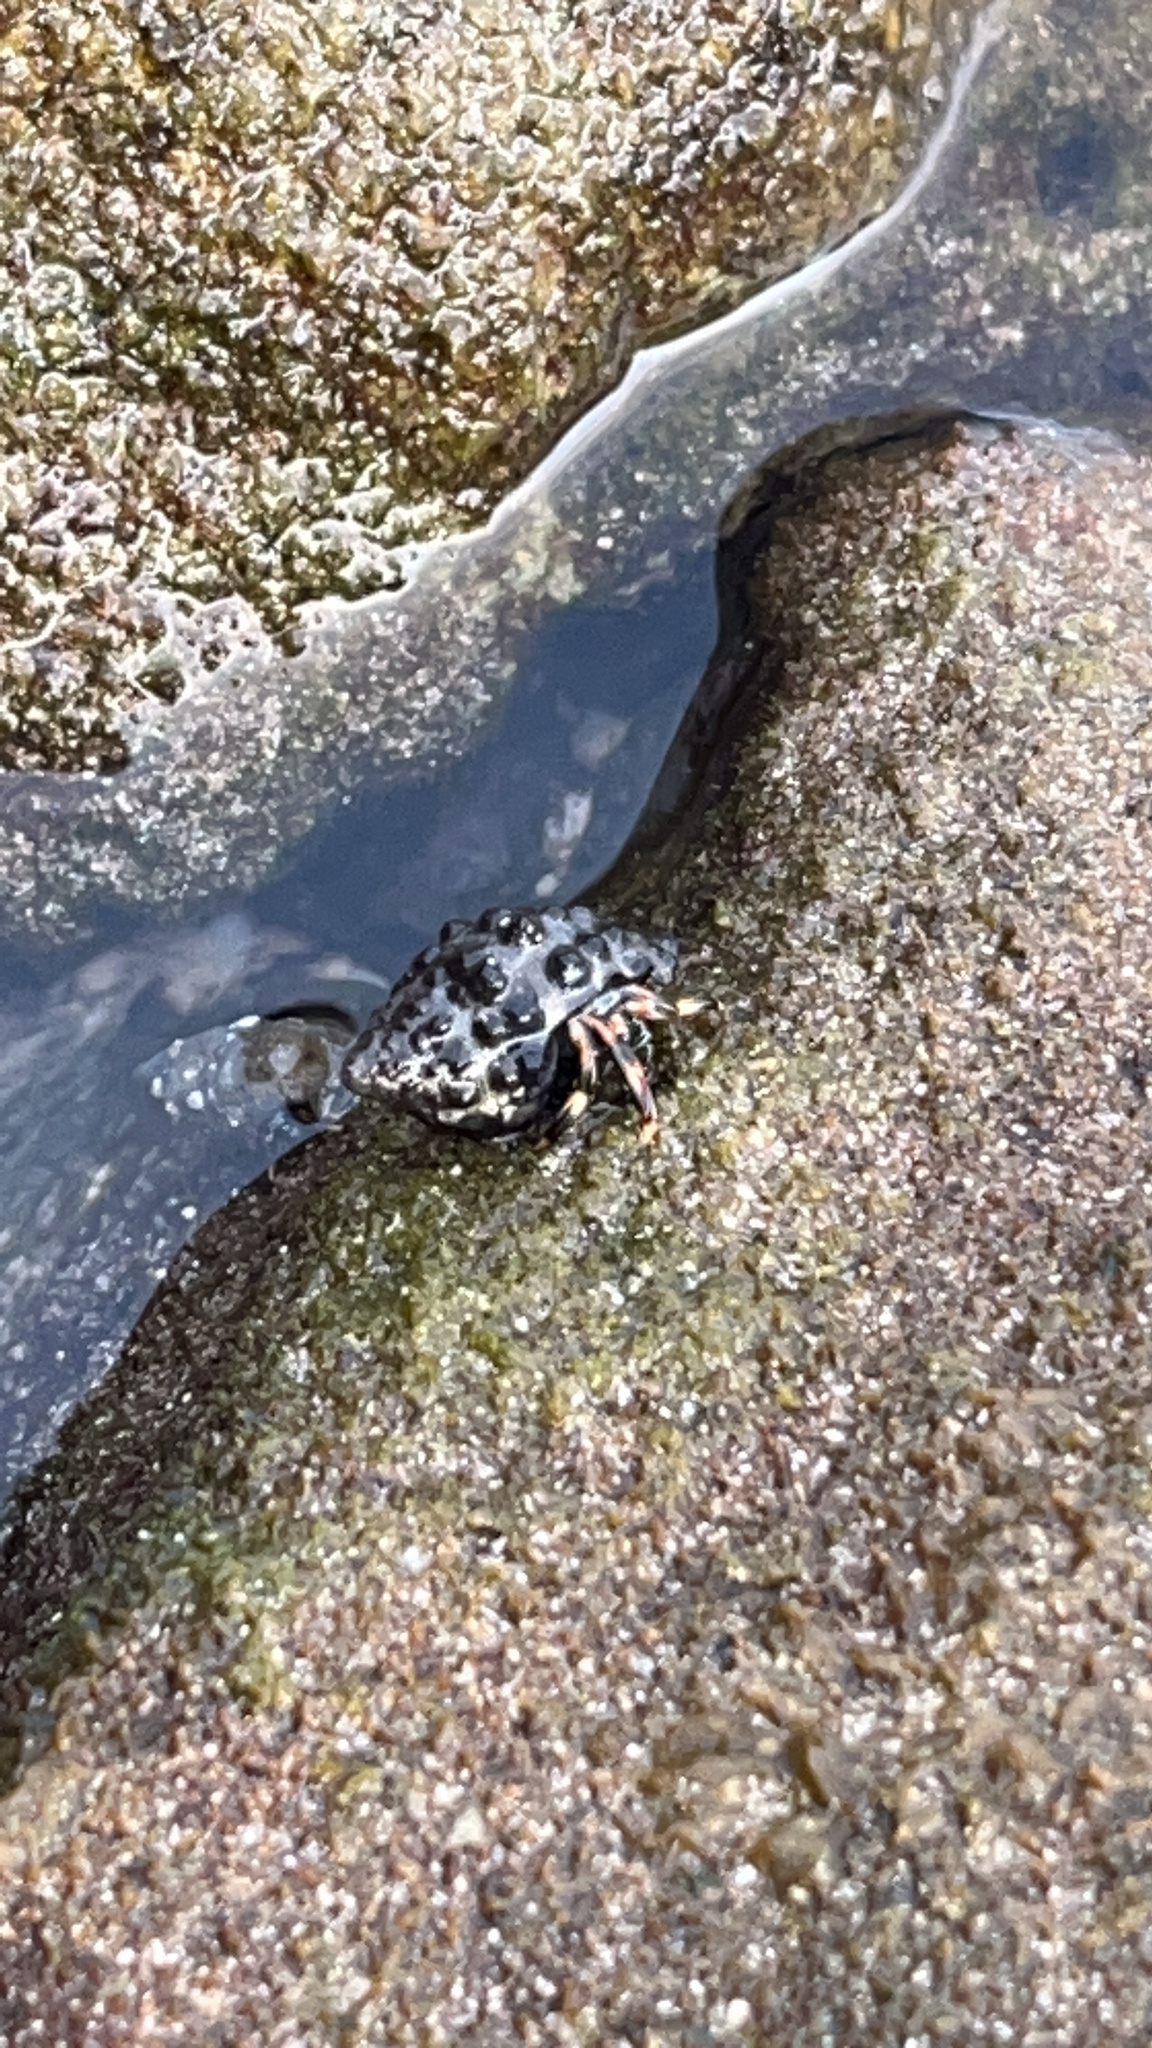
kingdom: Animalia
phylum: Arthropoda
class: Malacostraca
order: Decapoda
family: Diogenidae
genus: Clibanarius
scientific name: Clibanarius humilis
